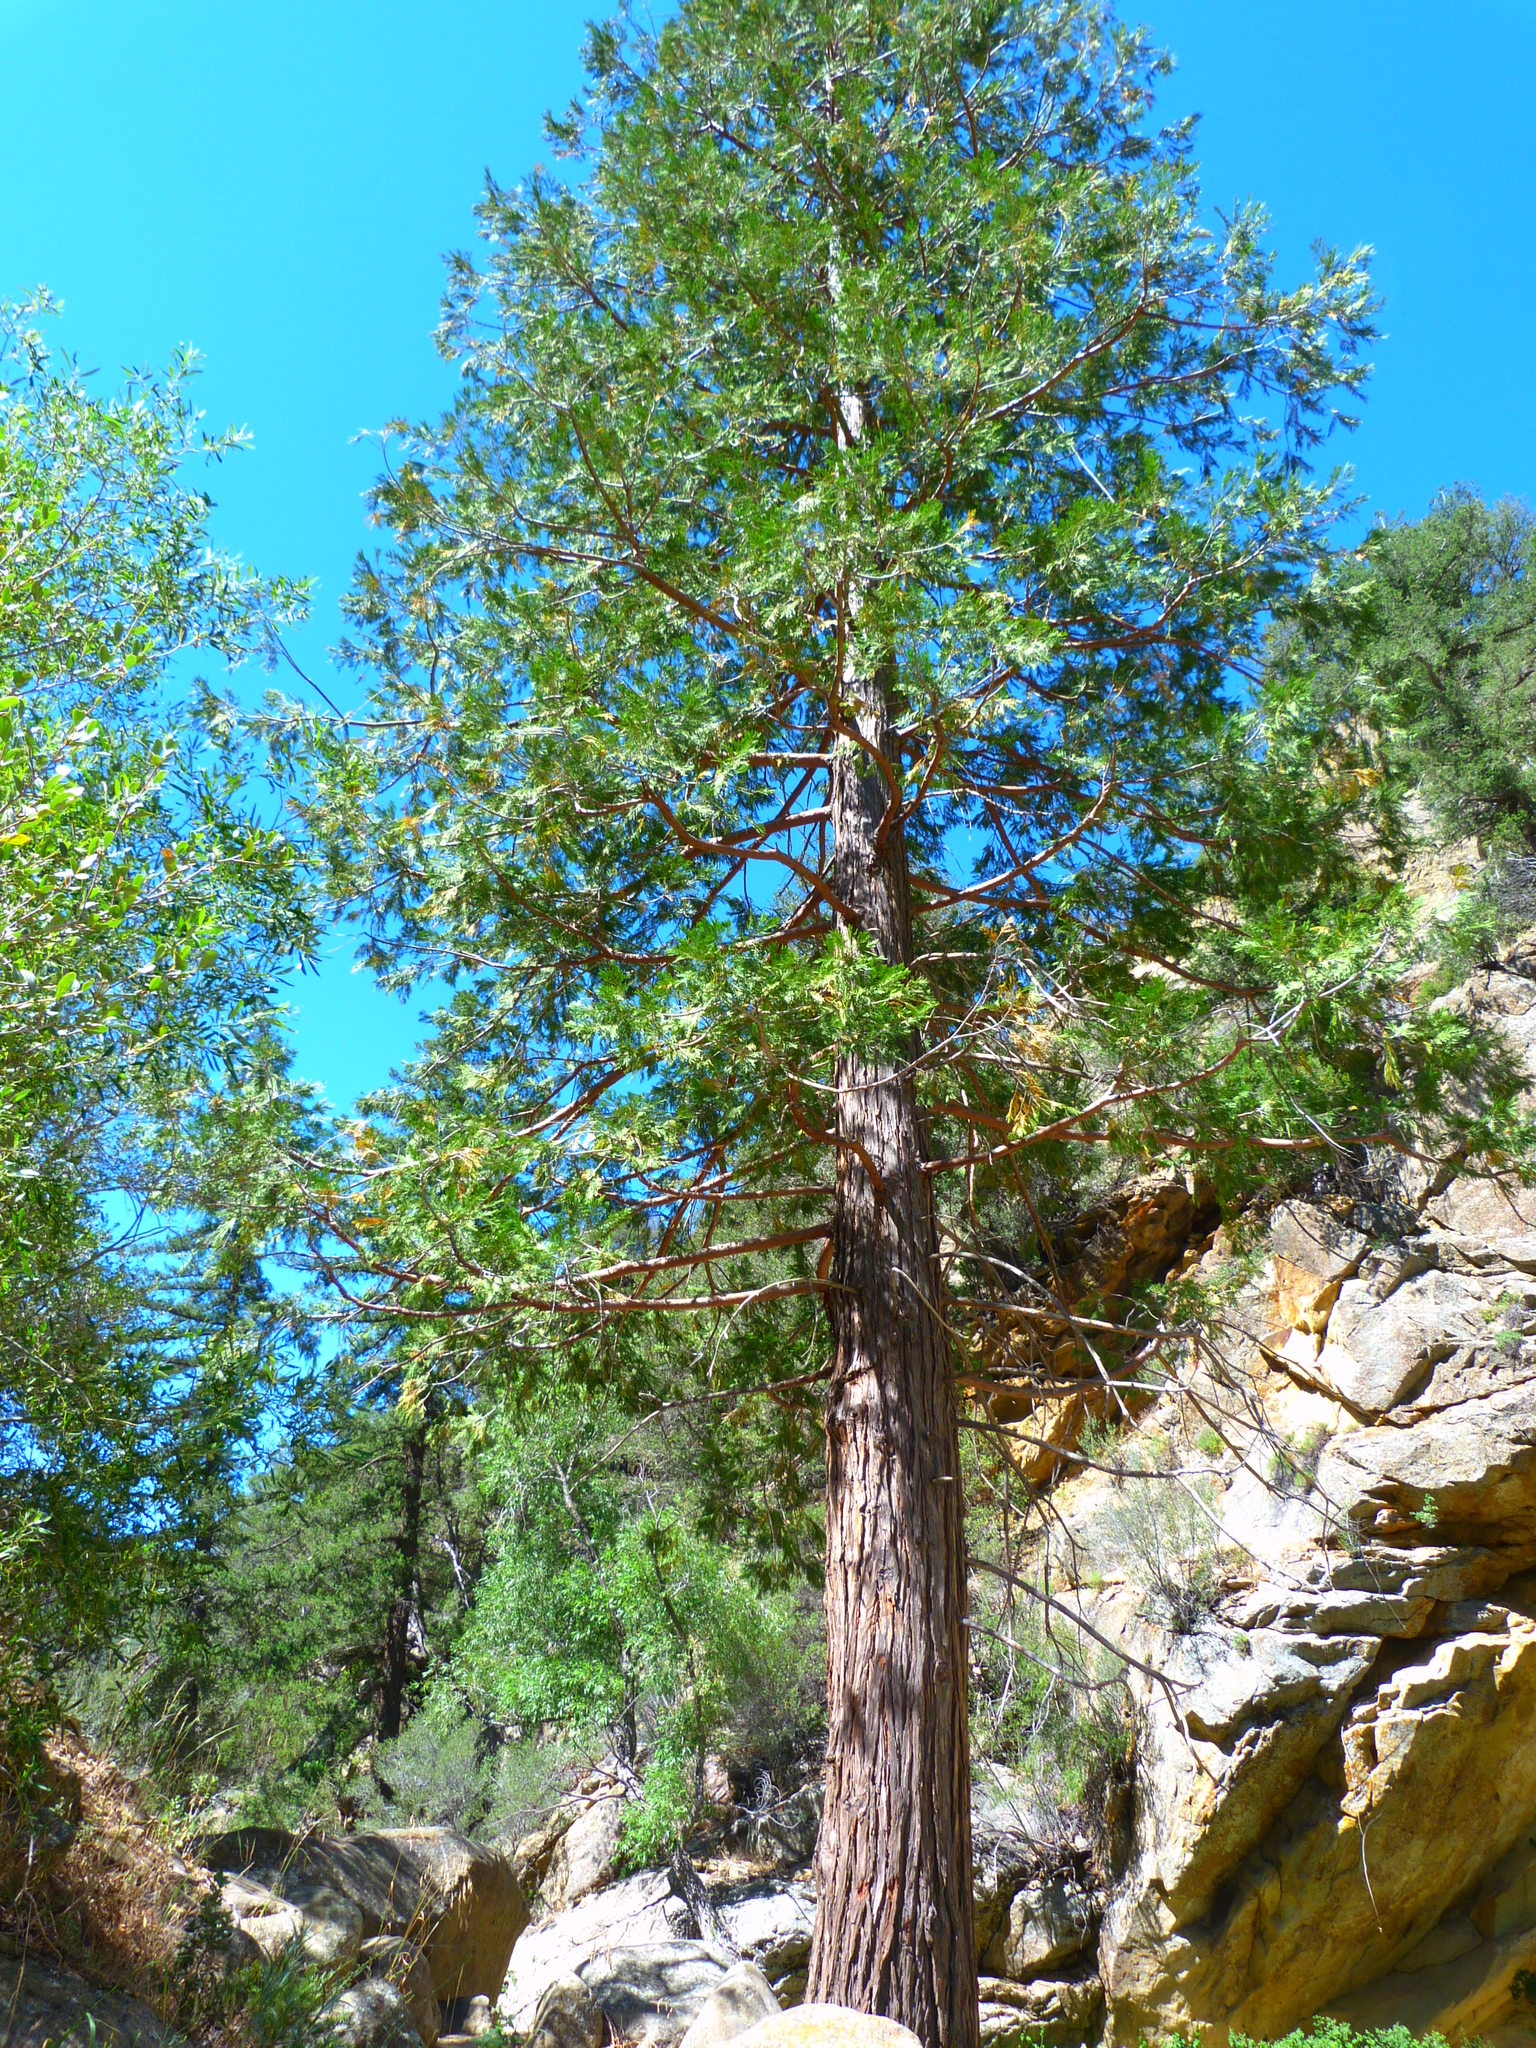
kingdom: Plantae
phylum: Tracheophyta
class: Pinopsida
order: Pinales
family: Cupressaceae
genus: Calocedrus
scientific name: Calocedrus decurrens
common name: Californian incense-cedar
